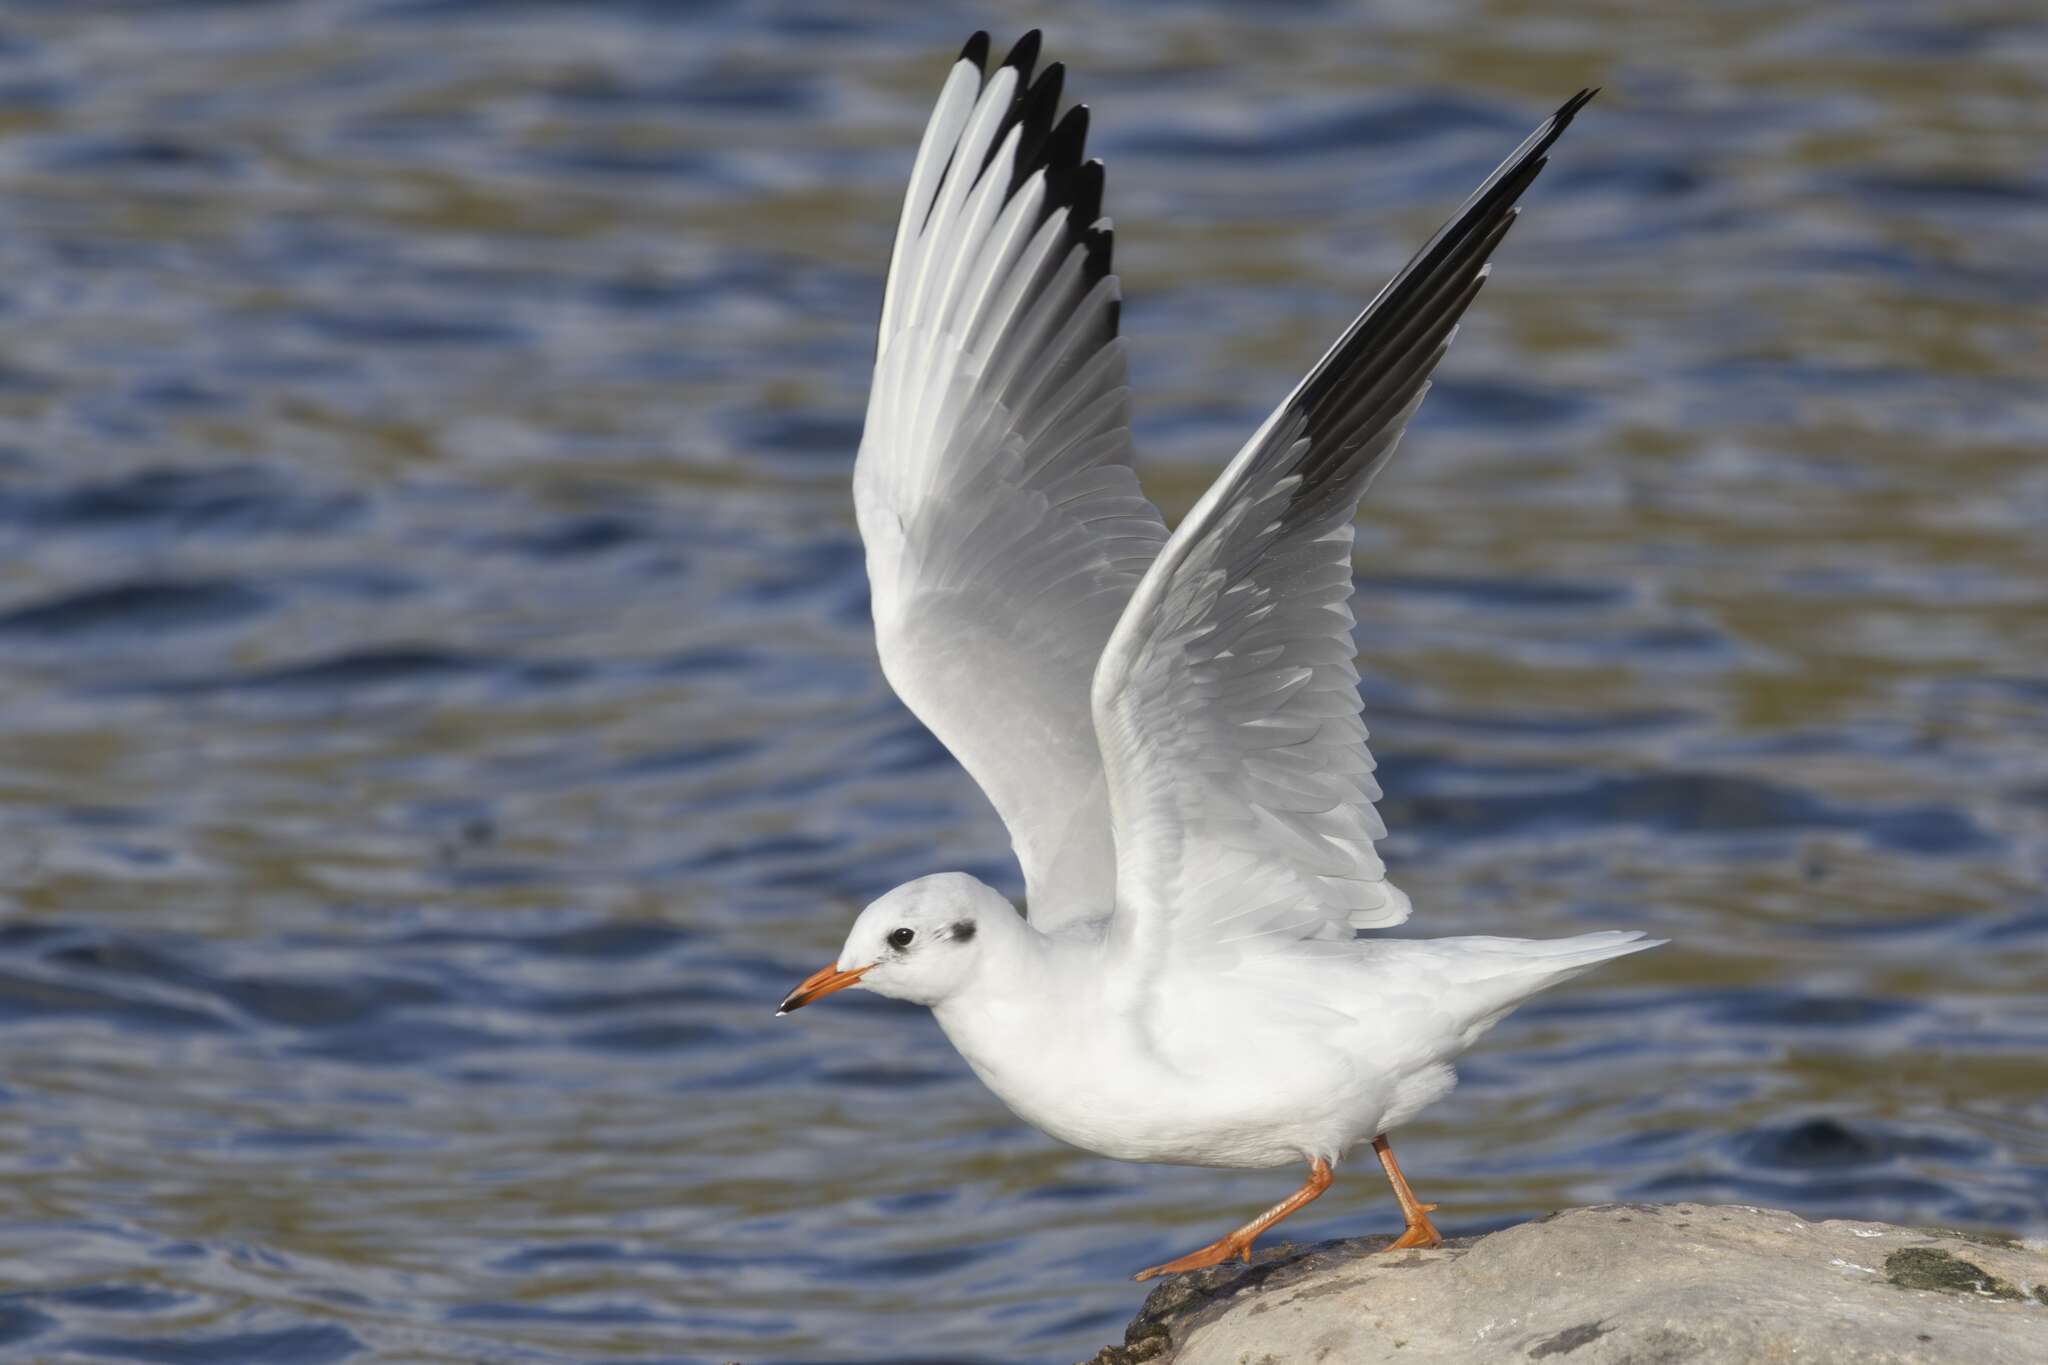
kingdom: Animalia
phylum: Chordata
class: Aves
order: Charadriiformes
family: Laridae
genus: Chroicocephalus
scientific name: Chroicocephalus ridibundus
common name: Black-headed gull
